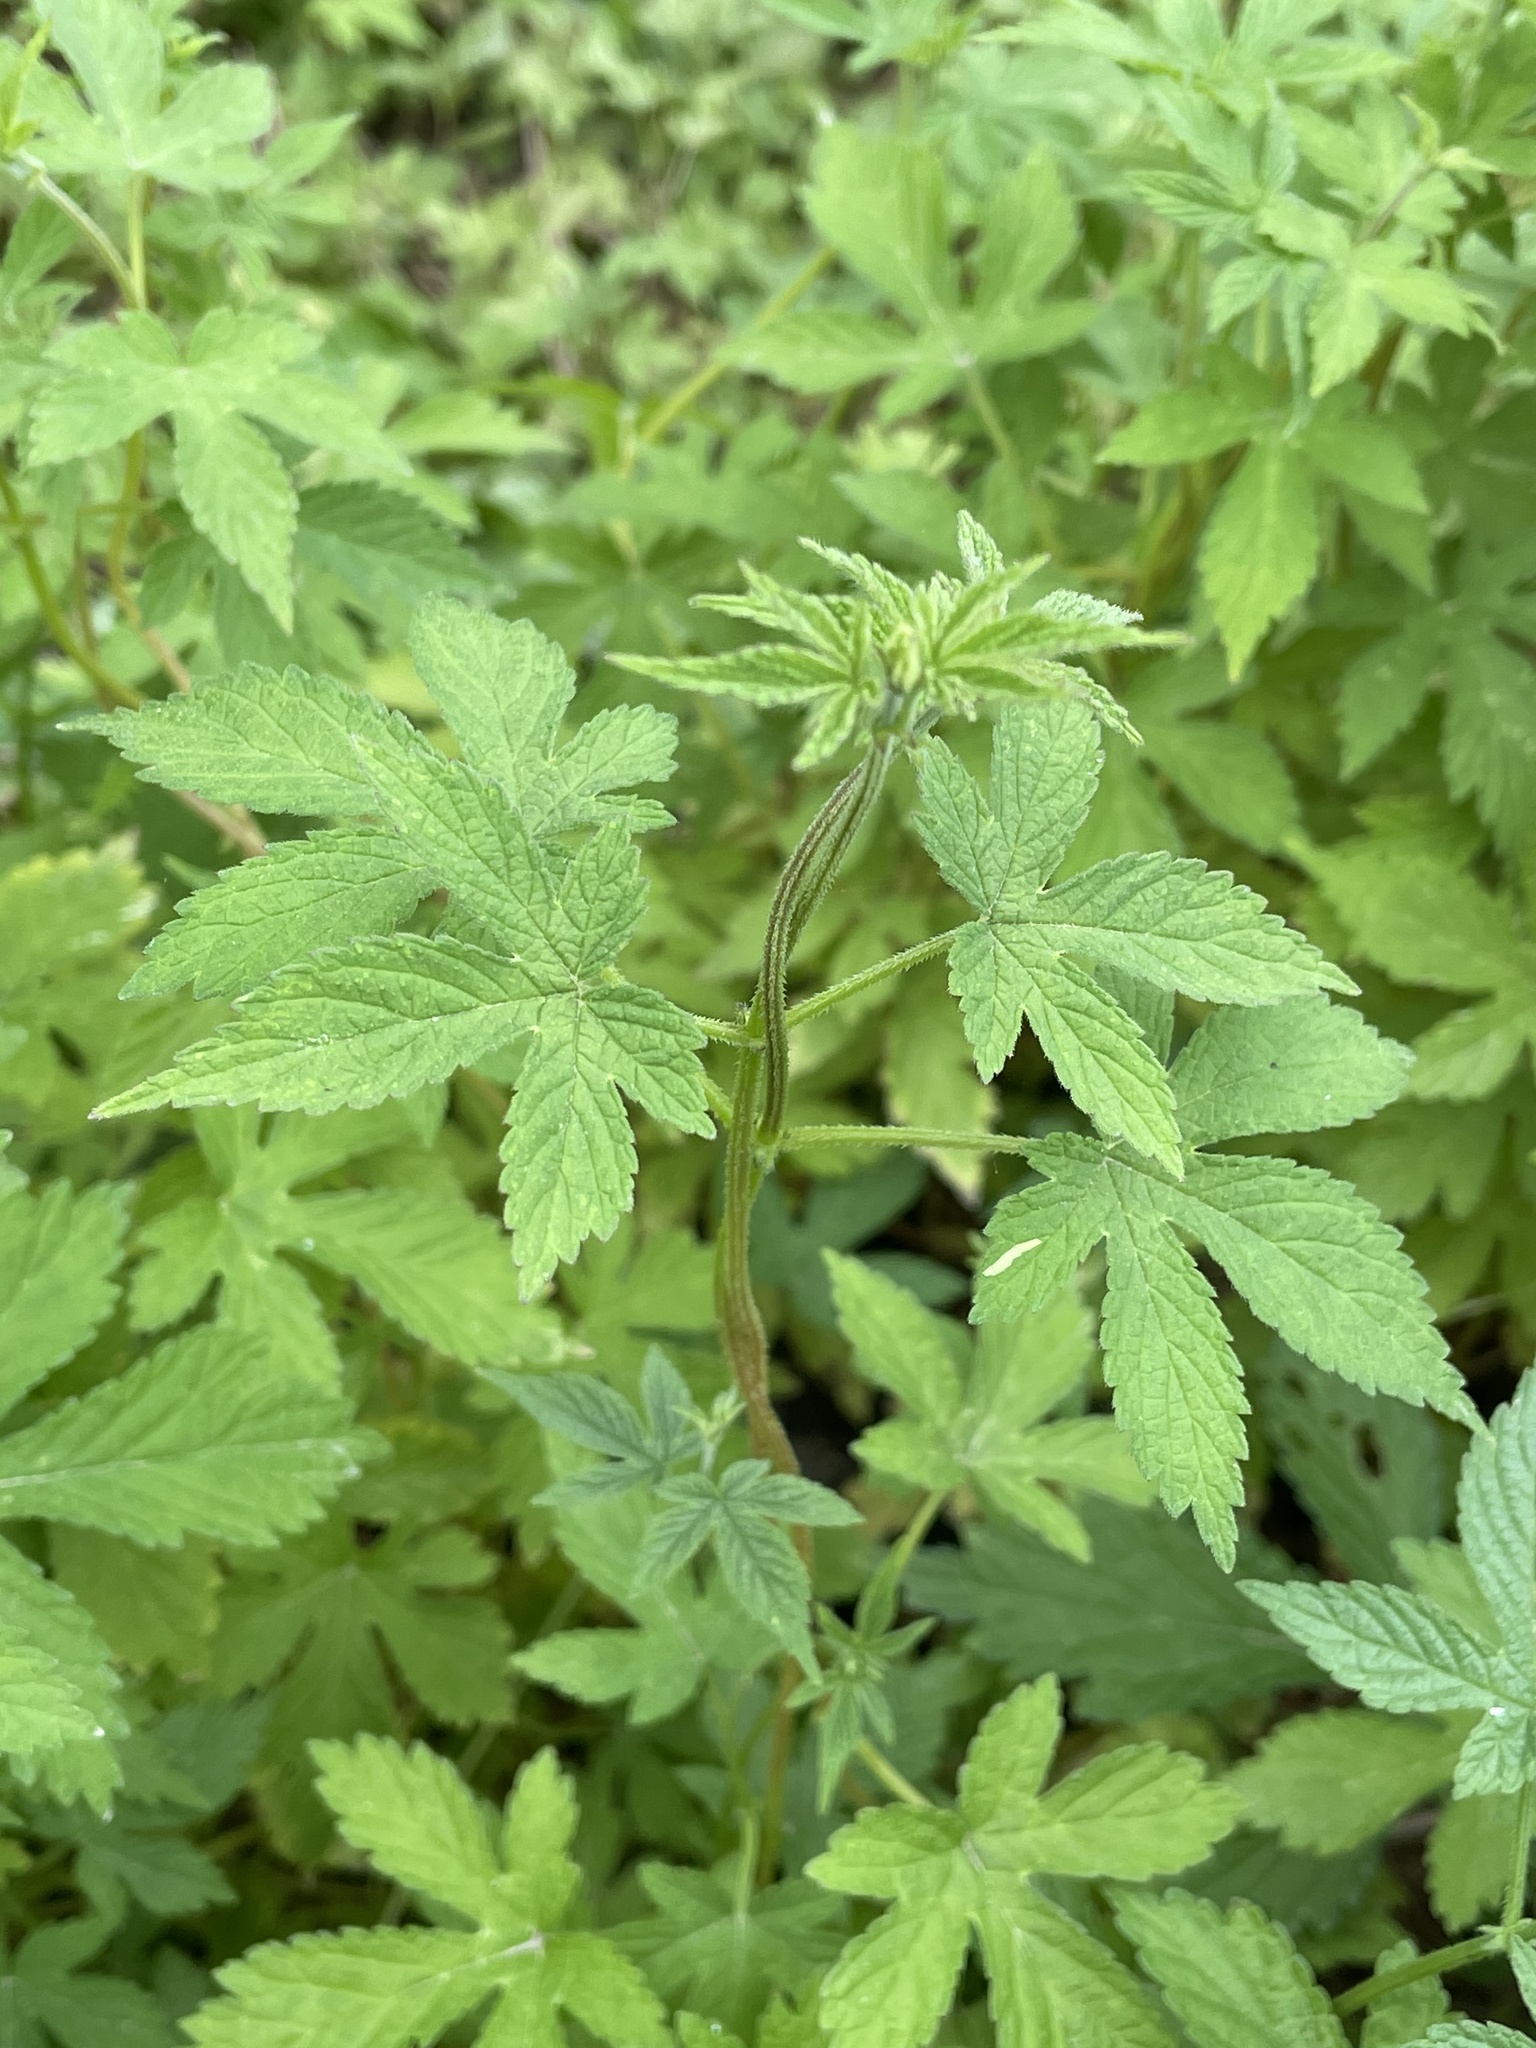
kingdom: Plantae
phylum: Tracheophyta
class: Magnoliopsida
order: Rosales
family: Cannabaceae
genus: Humulus
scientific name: Humulus scandens
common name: Japanese hop
